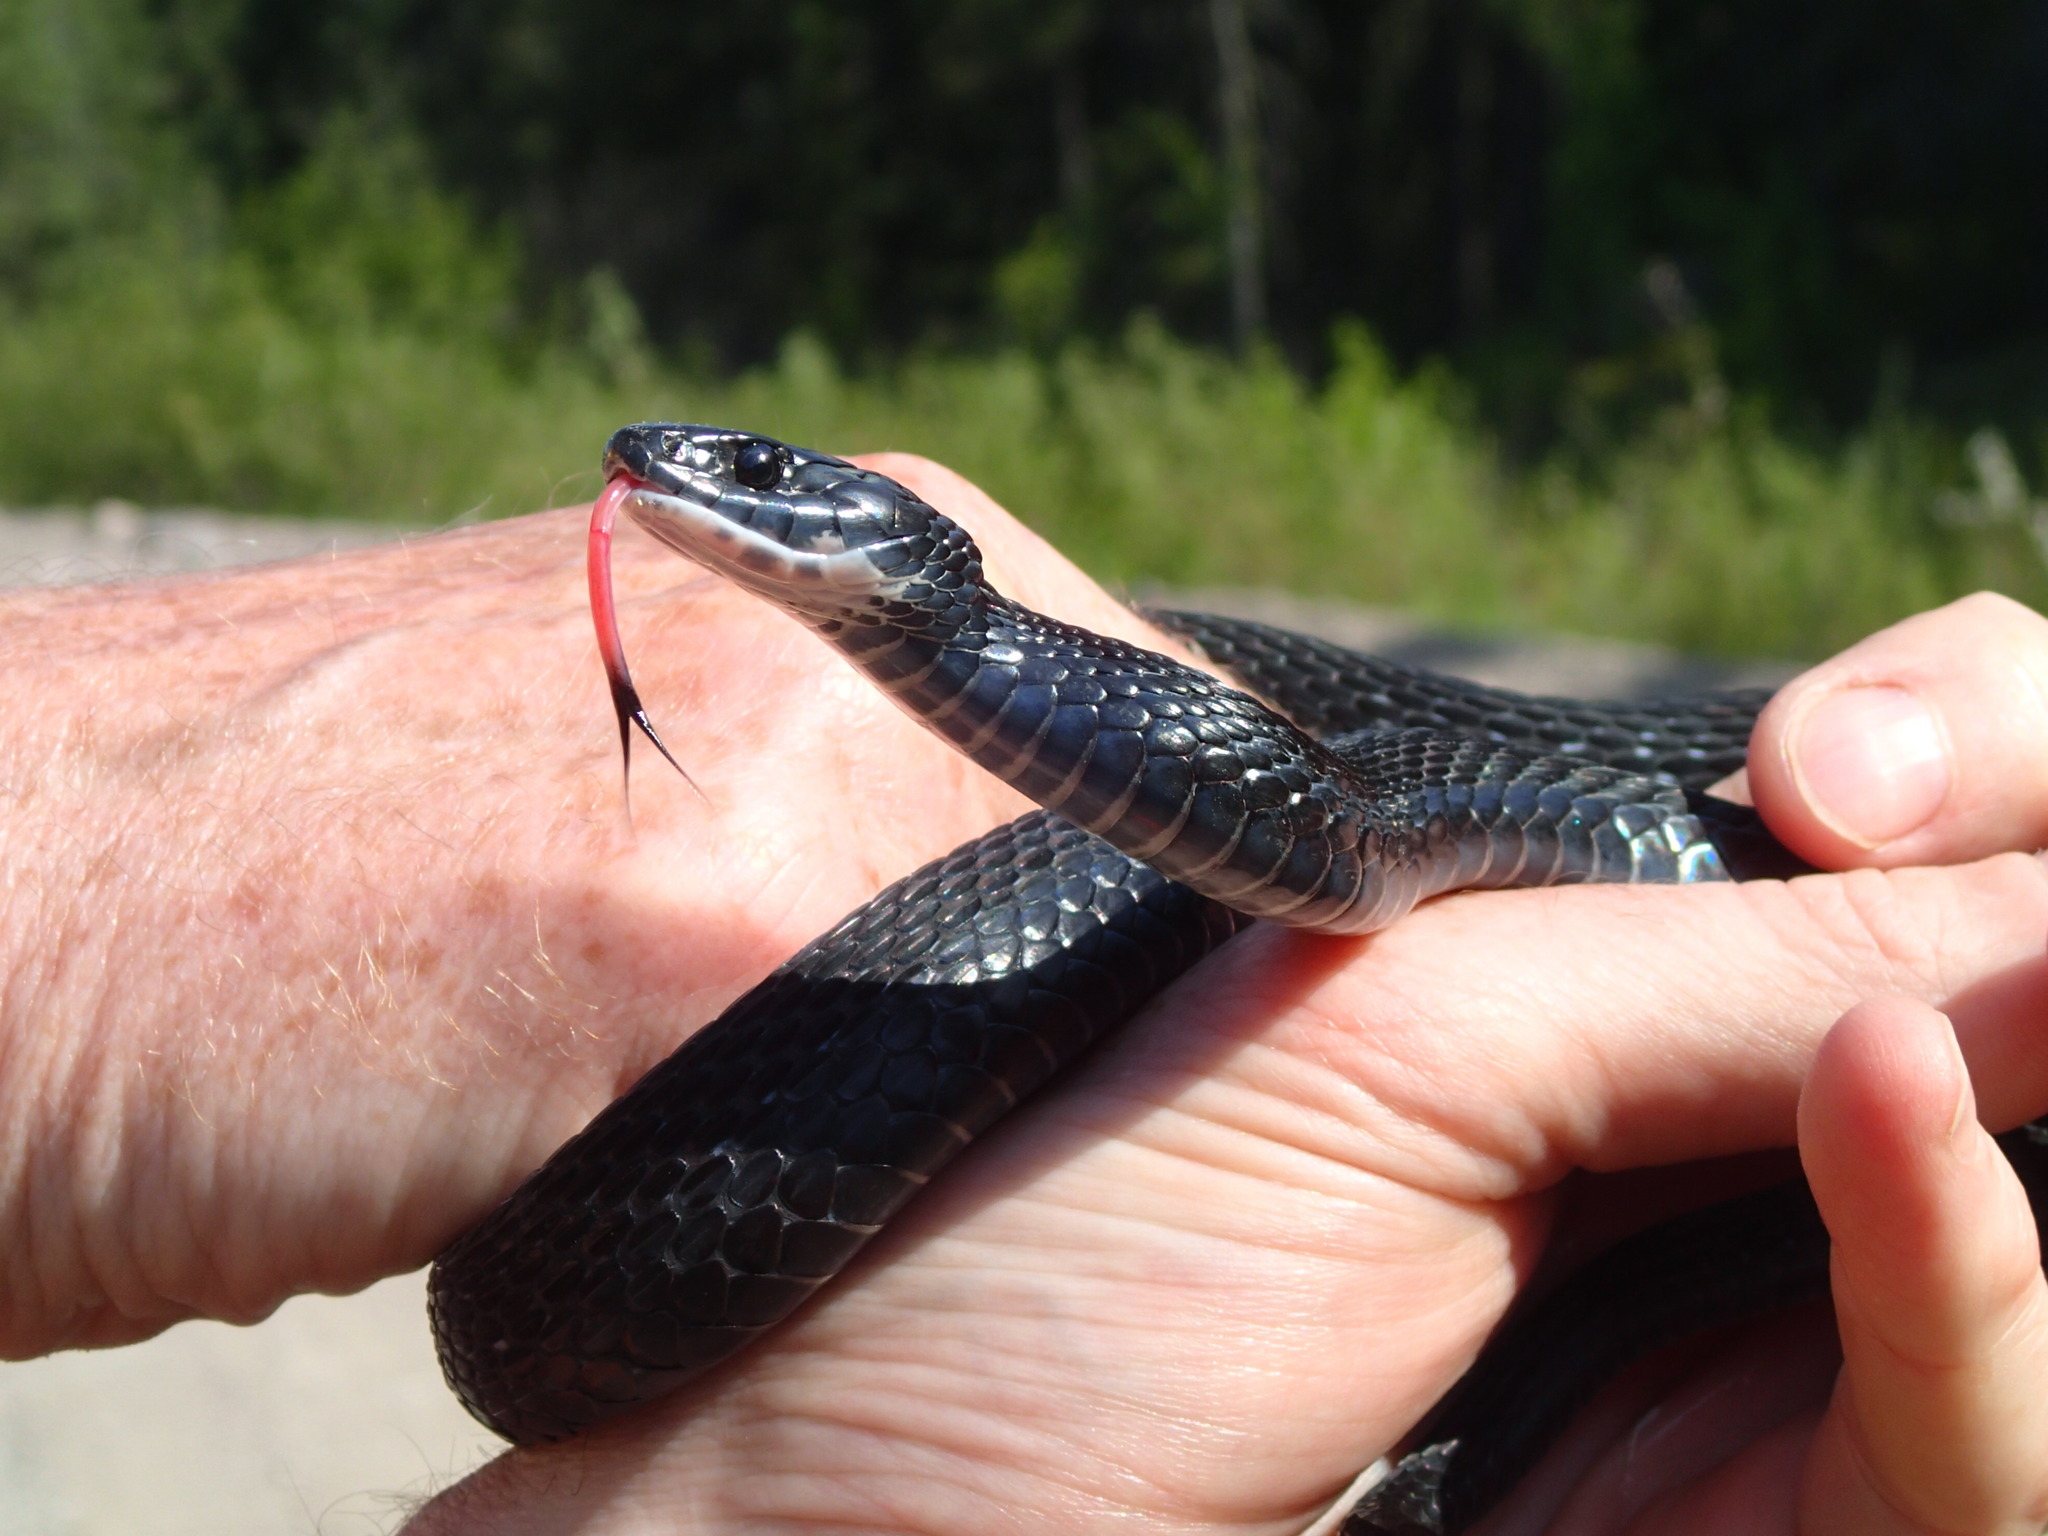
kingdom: Animalia
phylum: Chordata
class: Squamata
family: Colubridae
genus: Thamnophis
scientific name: Thamnophis sirtalis
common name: Common garter snake
